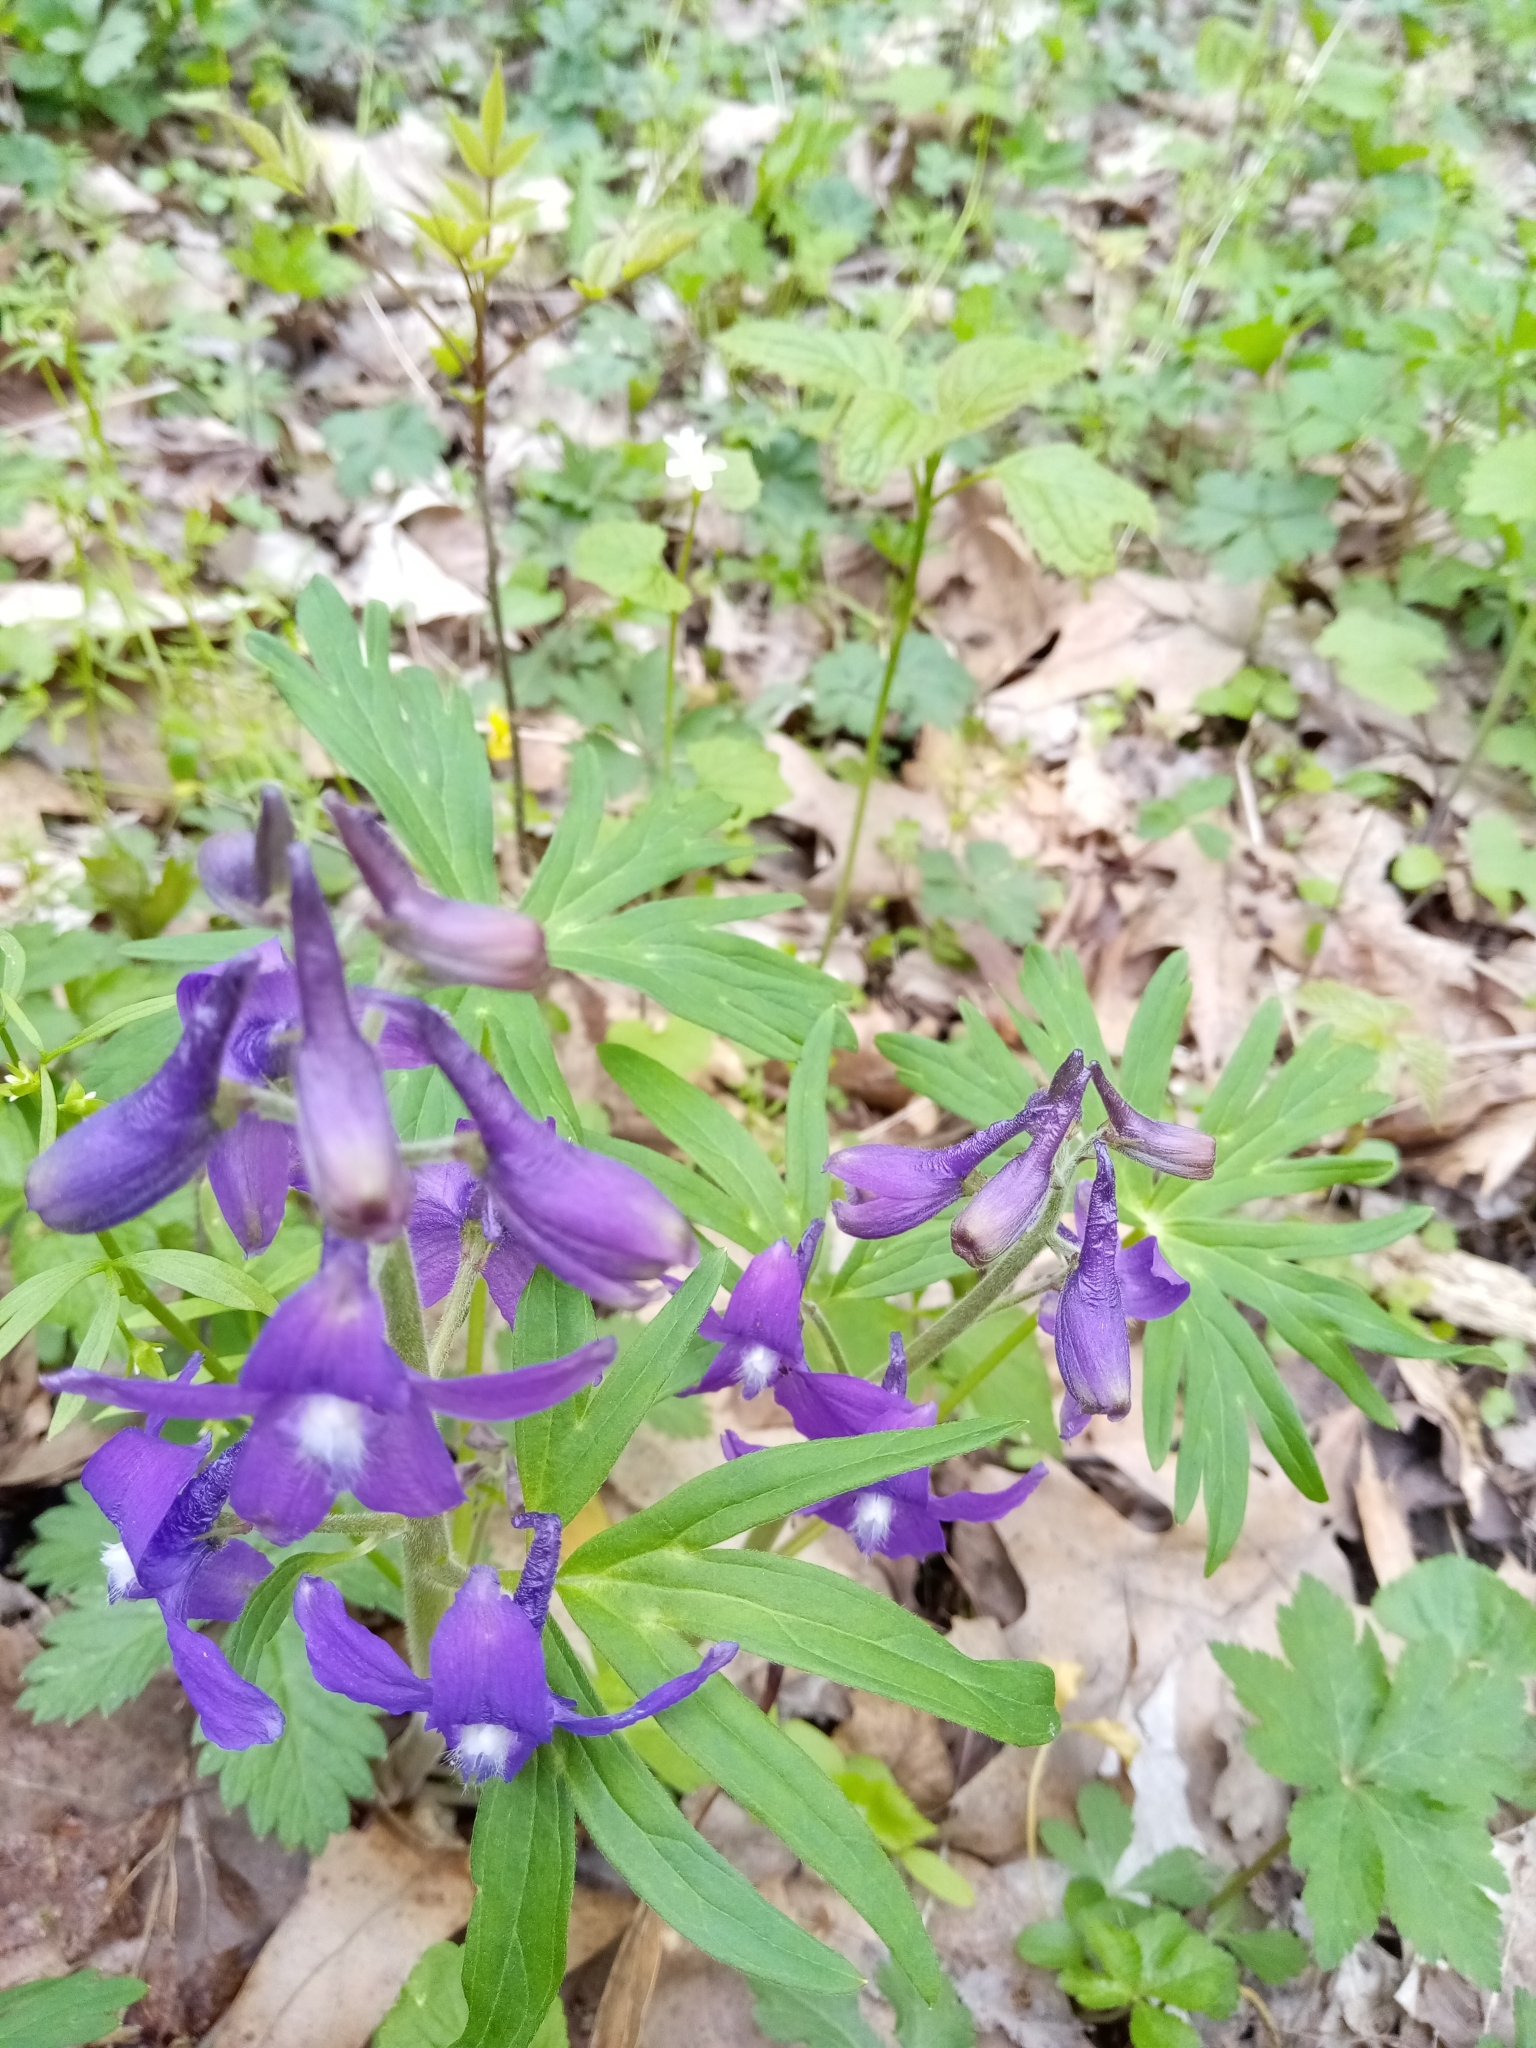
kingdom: Plantae
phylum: Tracheophyta
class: Magnoliopsida
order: Ranunculales
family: Ranunculaceae
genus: Delphinium
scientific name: Delphinium tricorne
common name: Dwarf larkspur
